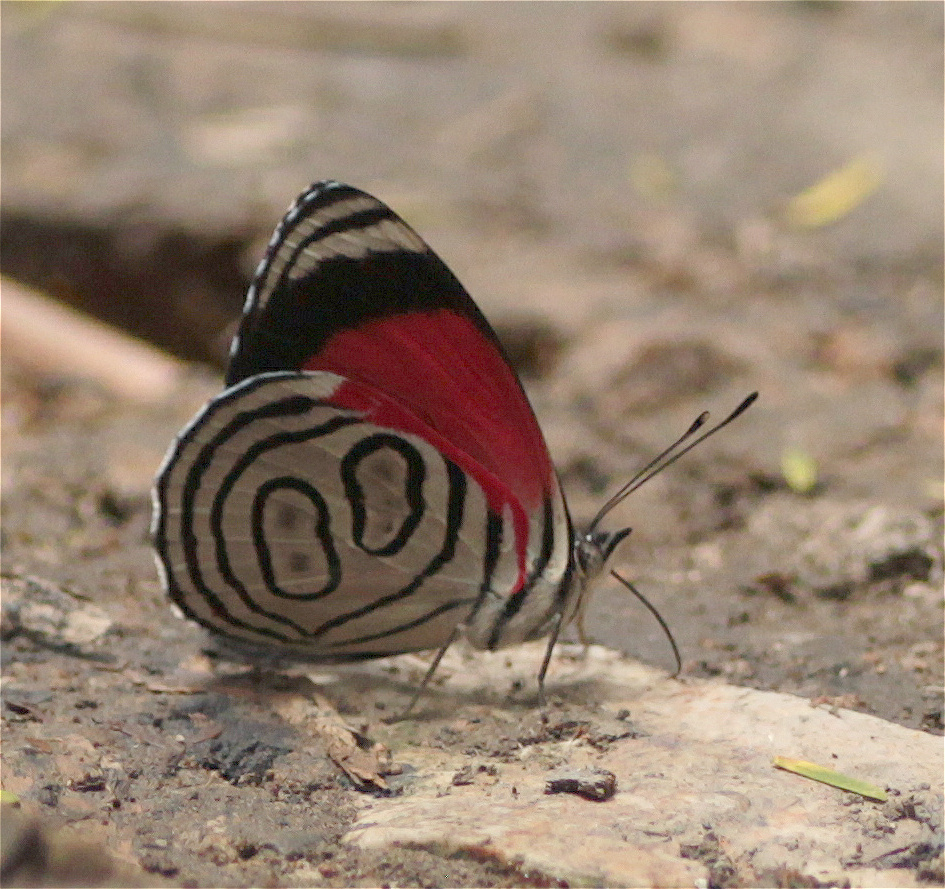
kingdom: Animalia
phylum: Arthropoda
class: Insecta
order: Lepidoptera
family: Nymphalidae
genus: Diaethria
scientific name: Diaethria gabaza
